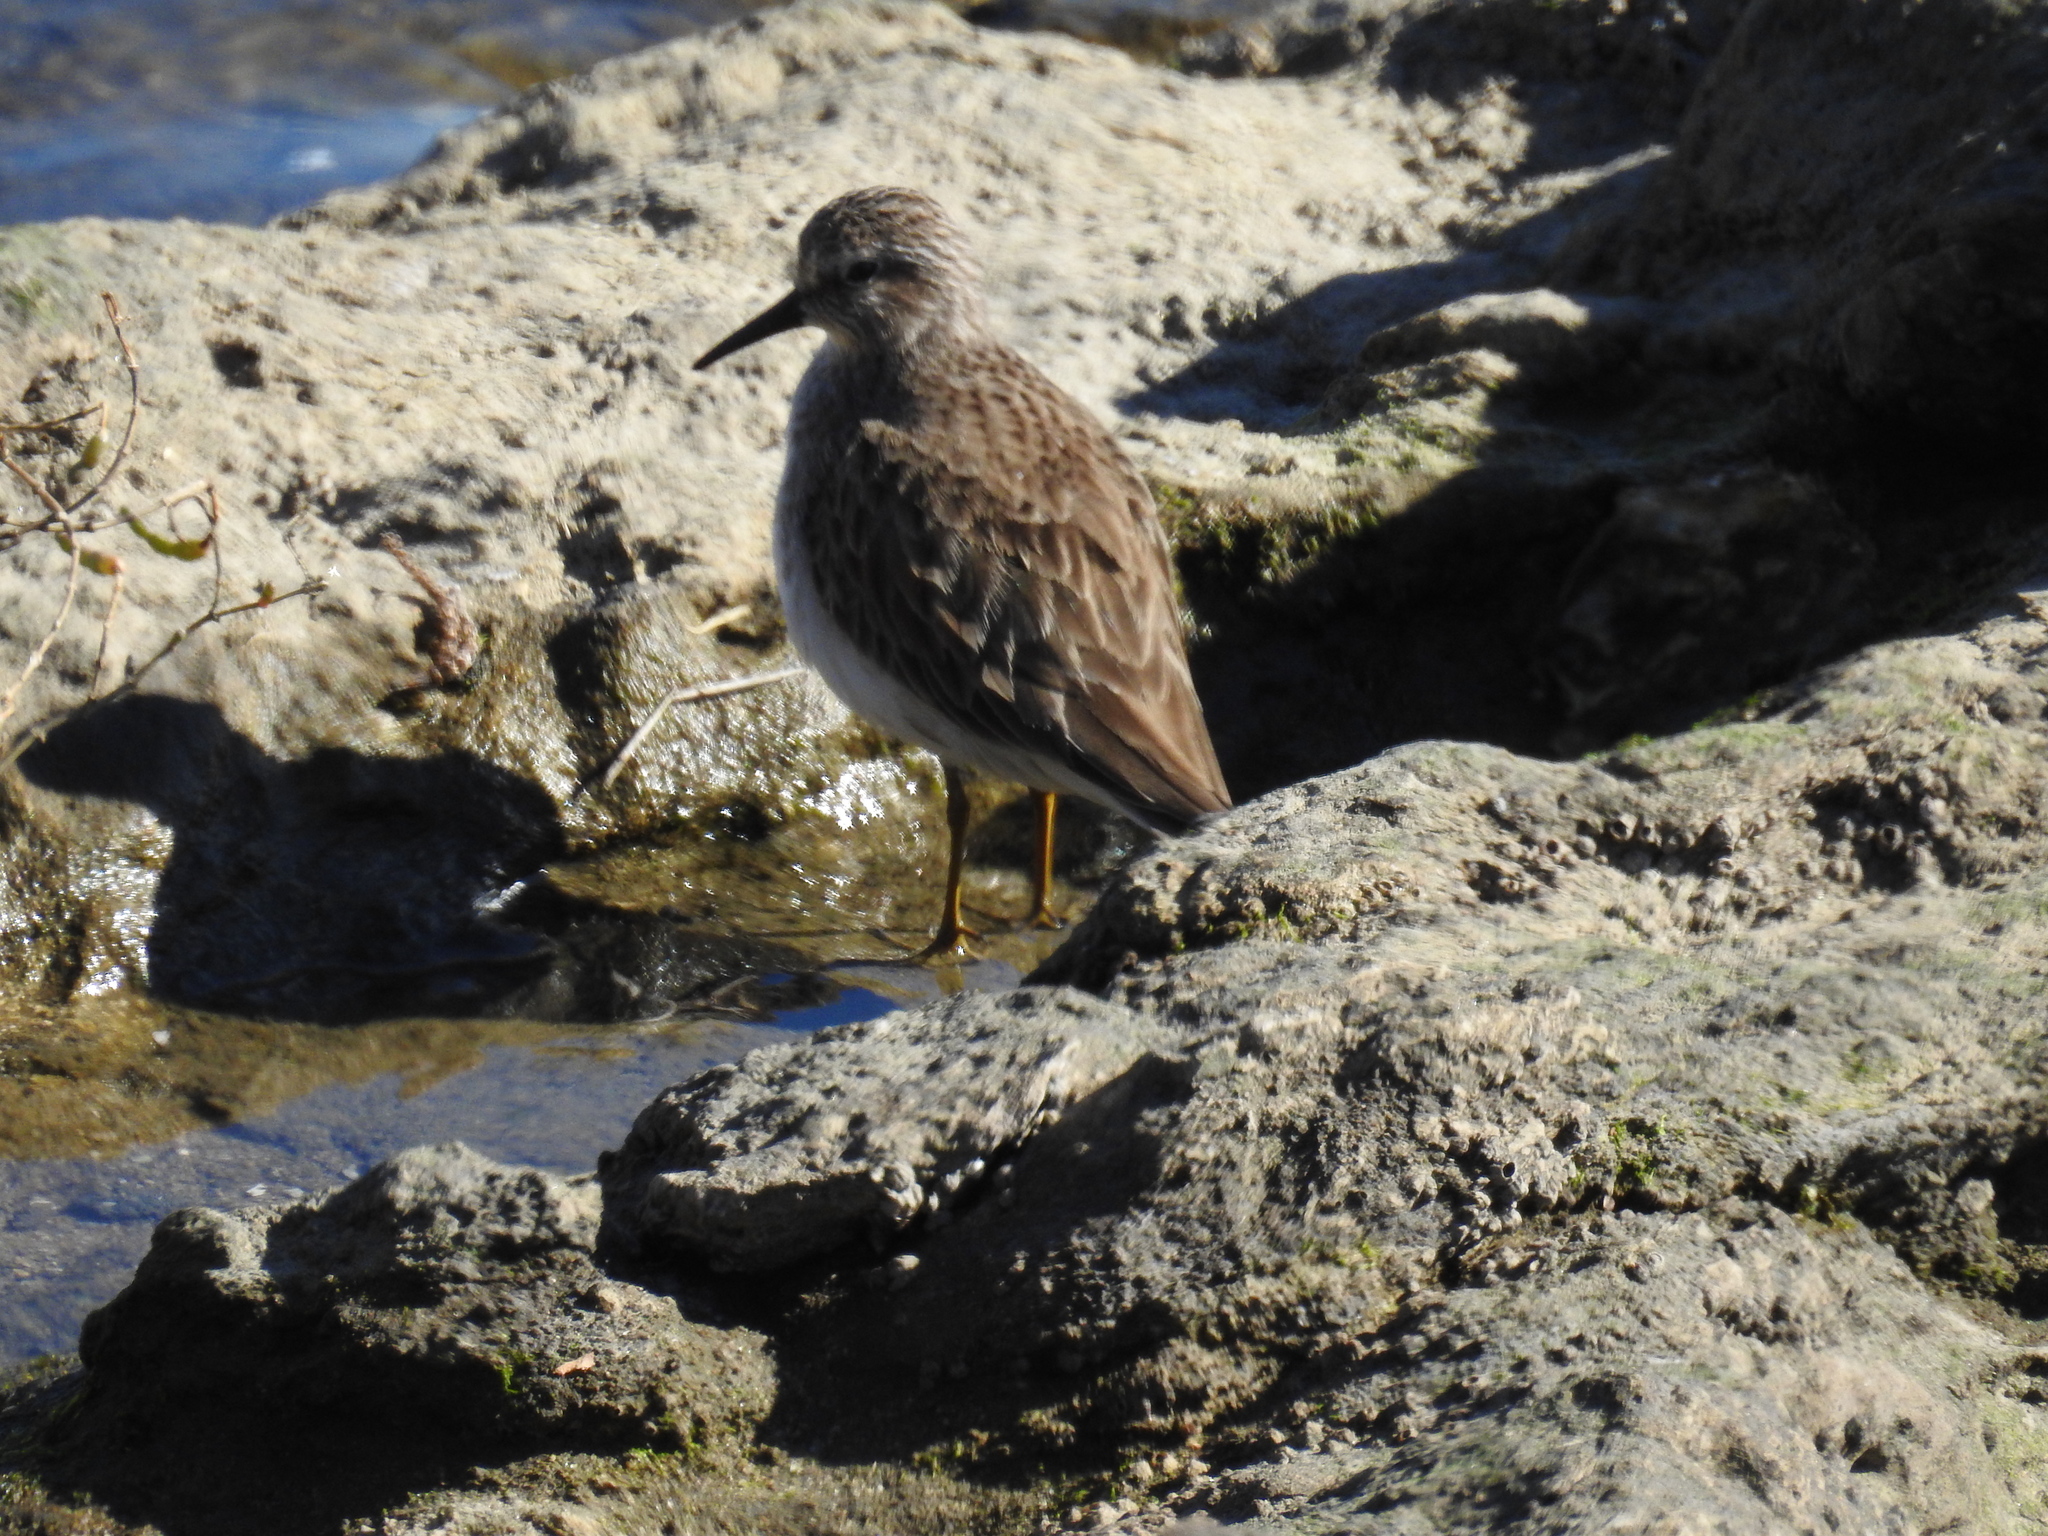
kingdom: Animalia
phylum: Chordata
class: Aves
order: Charadriiformes
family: Scolopacidae
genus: Calidris
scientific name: Calidris minutilla
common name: Least sandpiper
